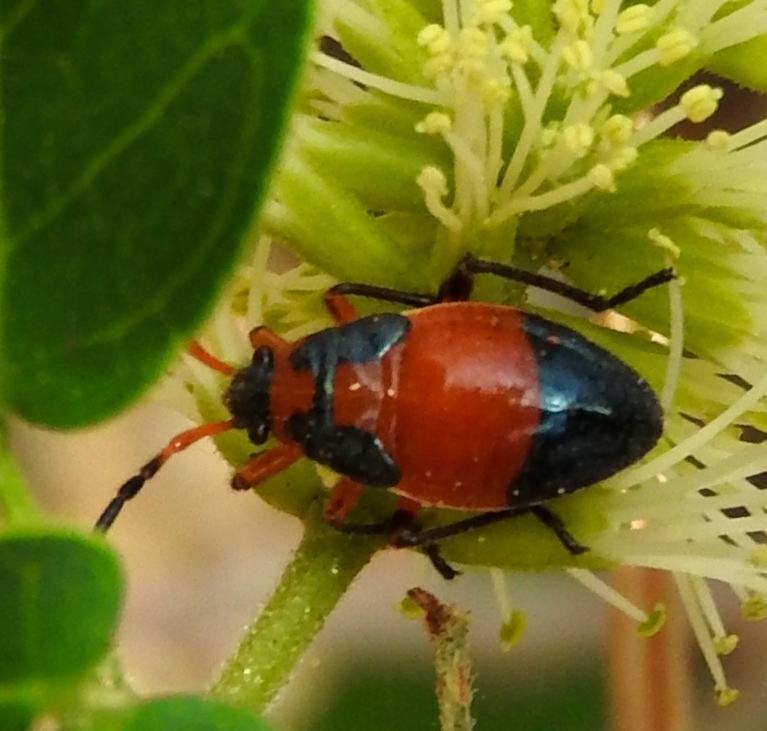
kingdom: Animalia
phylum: Arthropoda
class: Insecta
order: Hemiptera
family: Largidae
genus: Largus
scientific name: Largus
